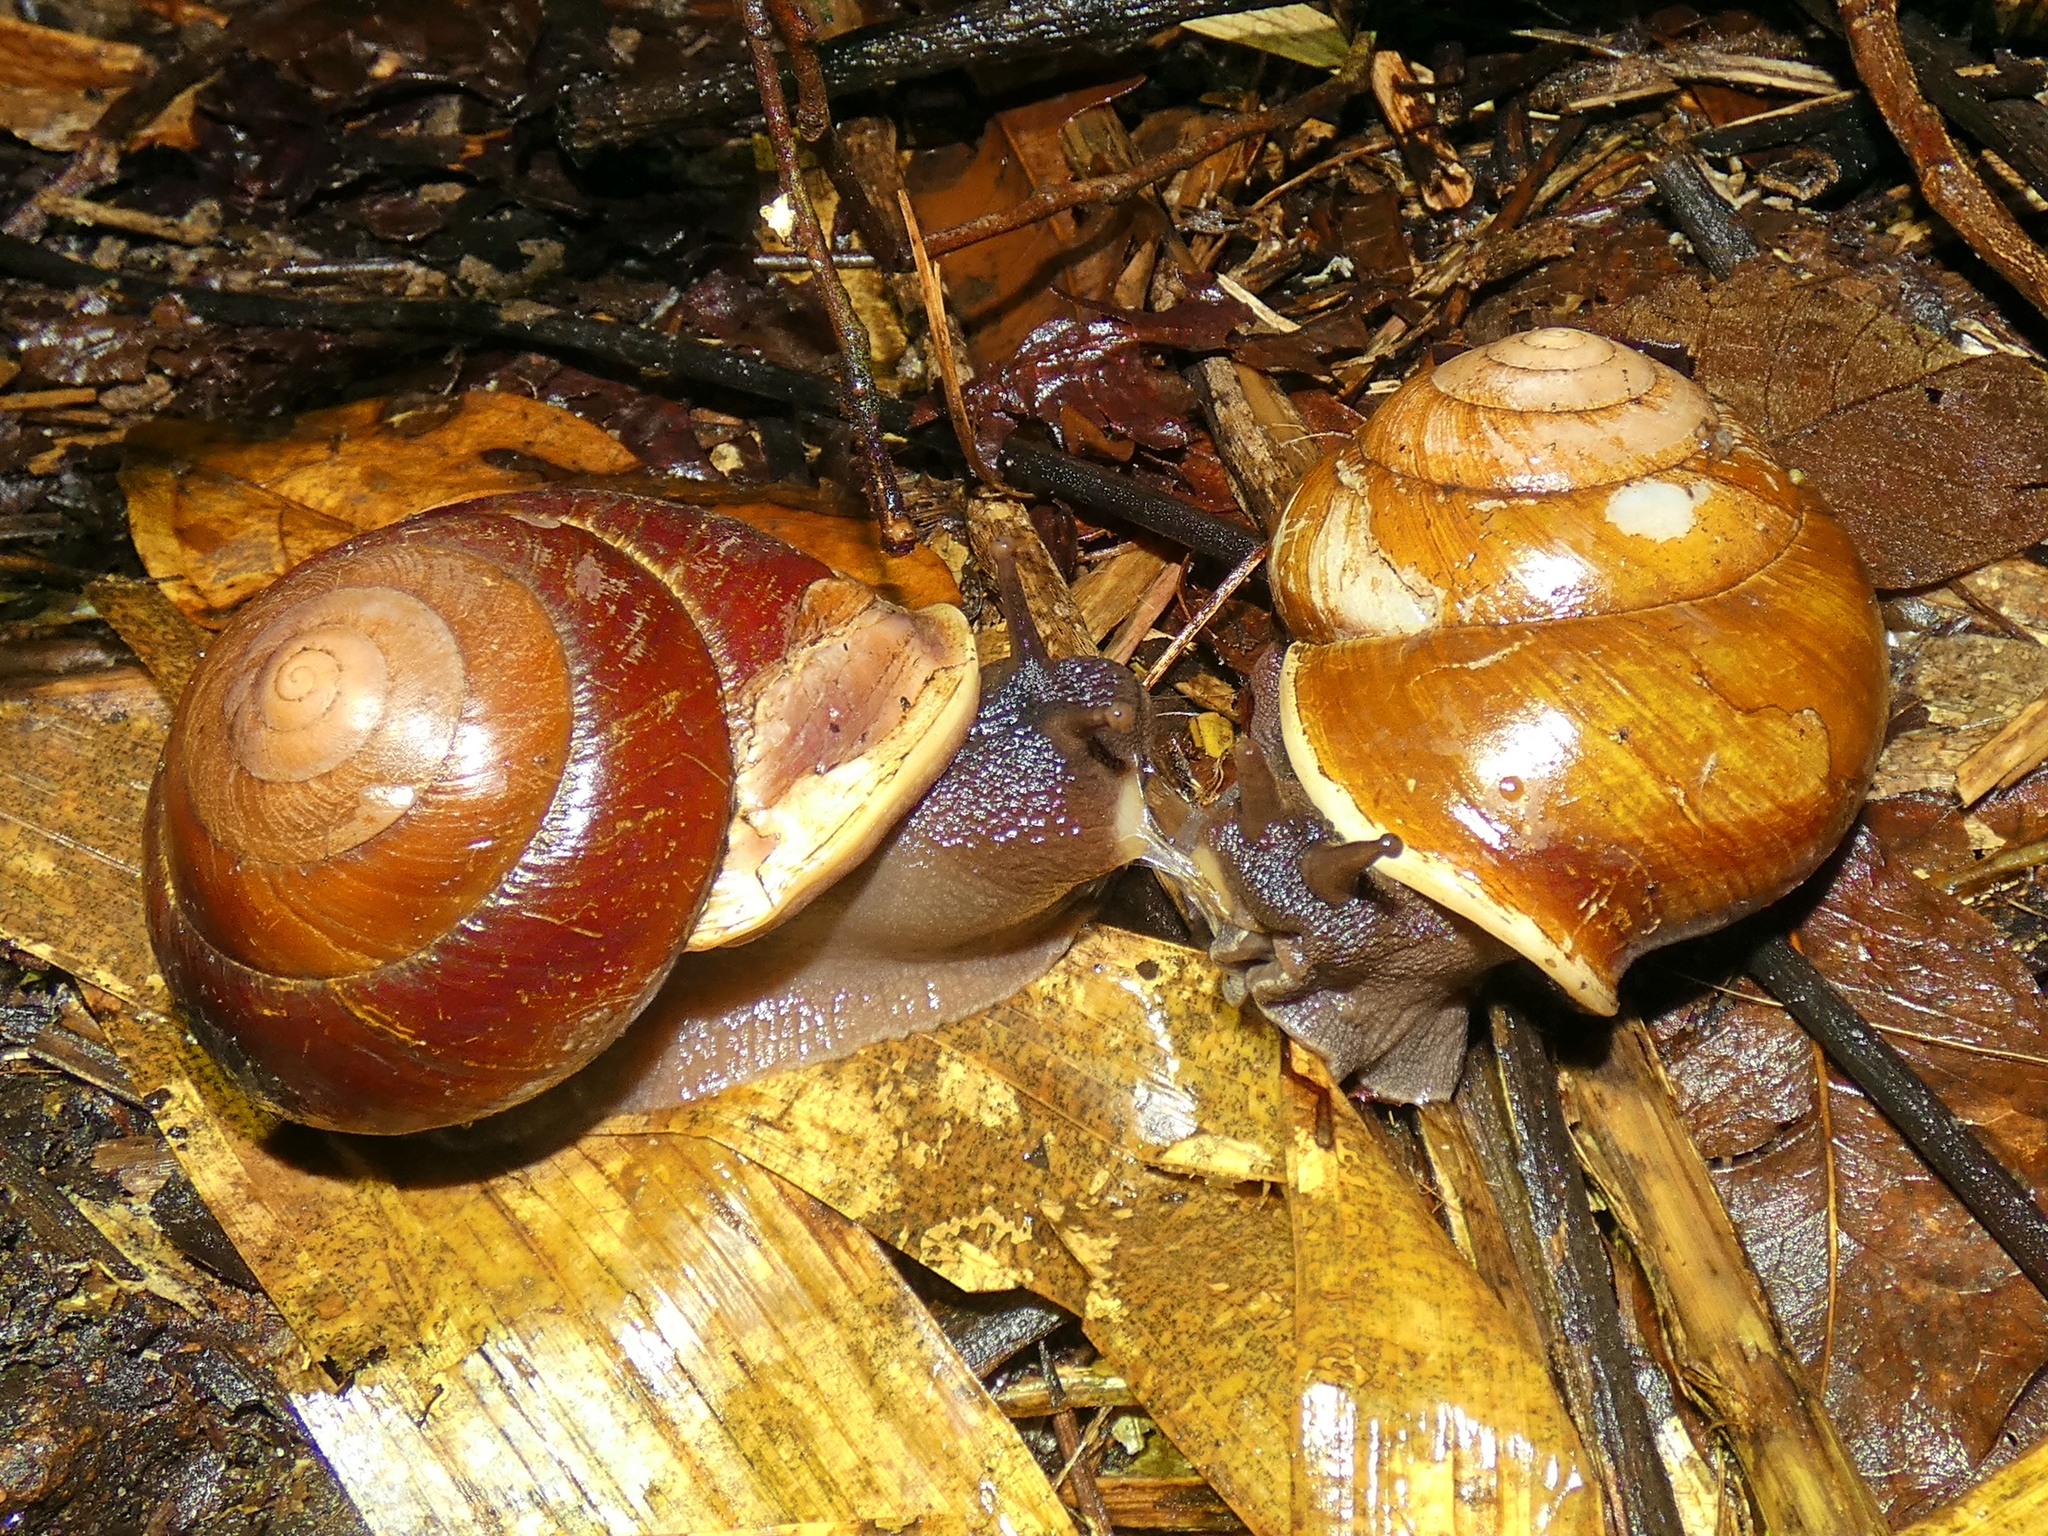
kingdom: Animalia
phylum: Mollusca
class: Gastropoda
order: Stylommatophora
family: Camaenidae
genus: Hadra
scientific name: Hadra bipartita
